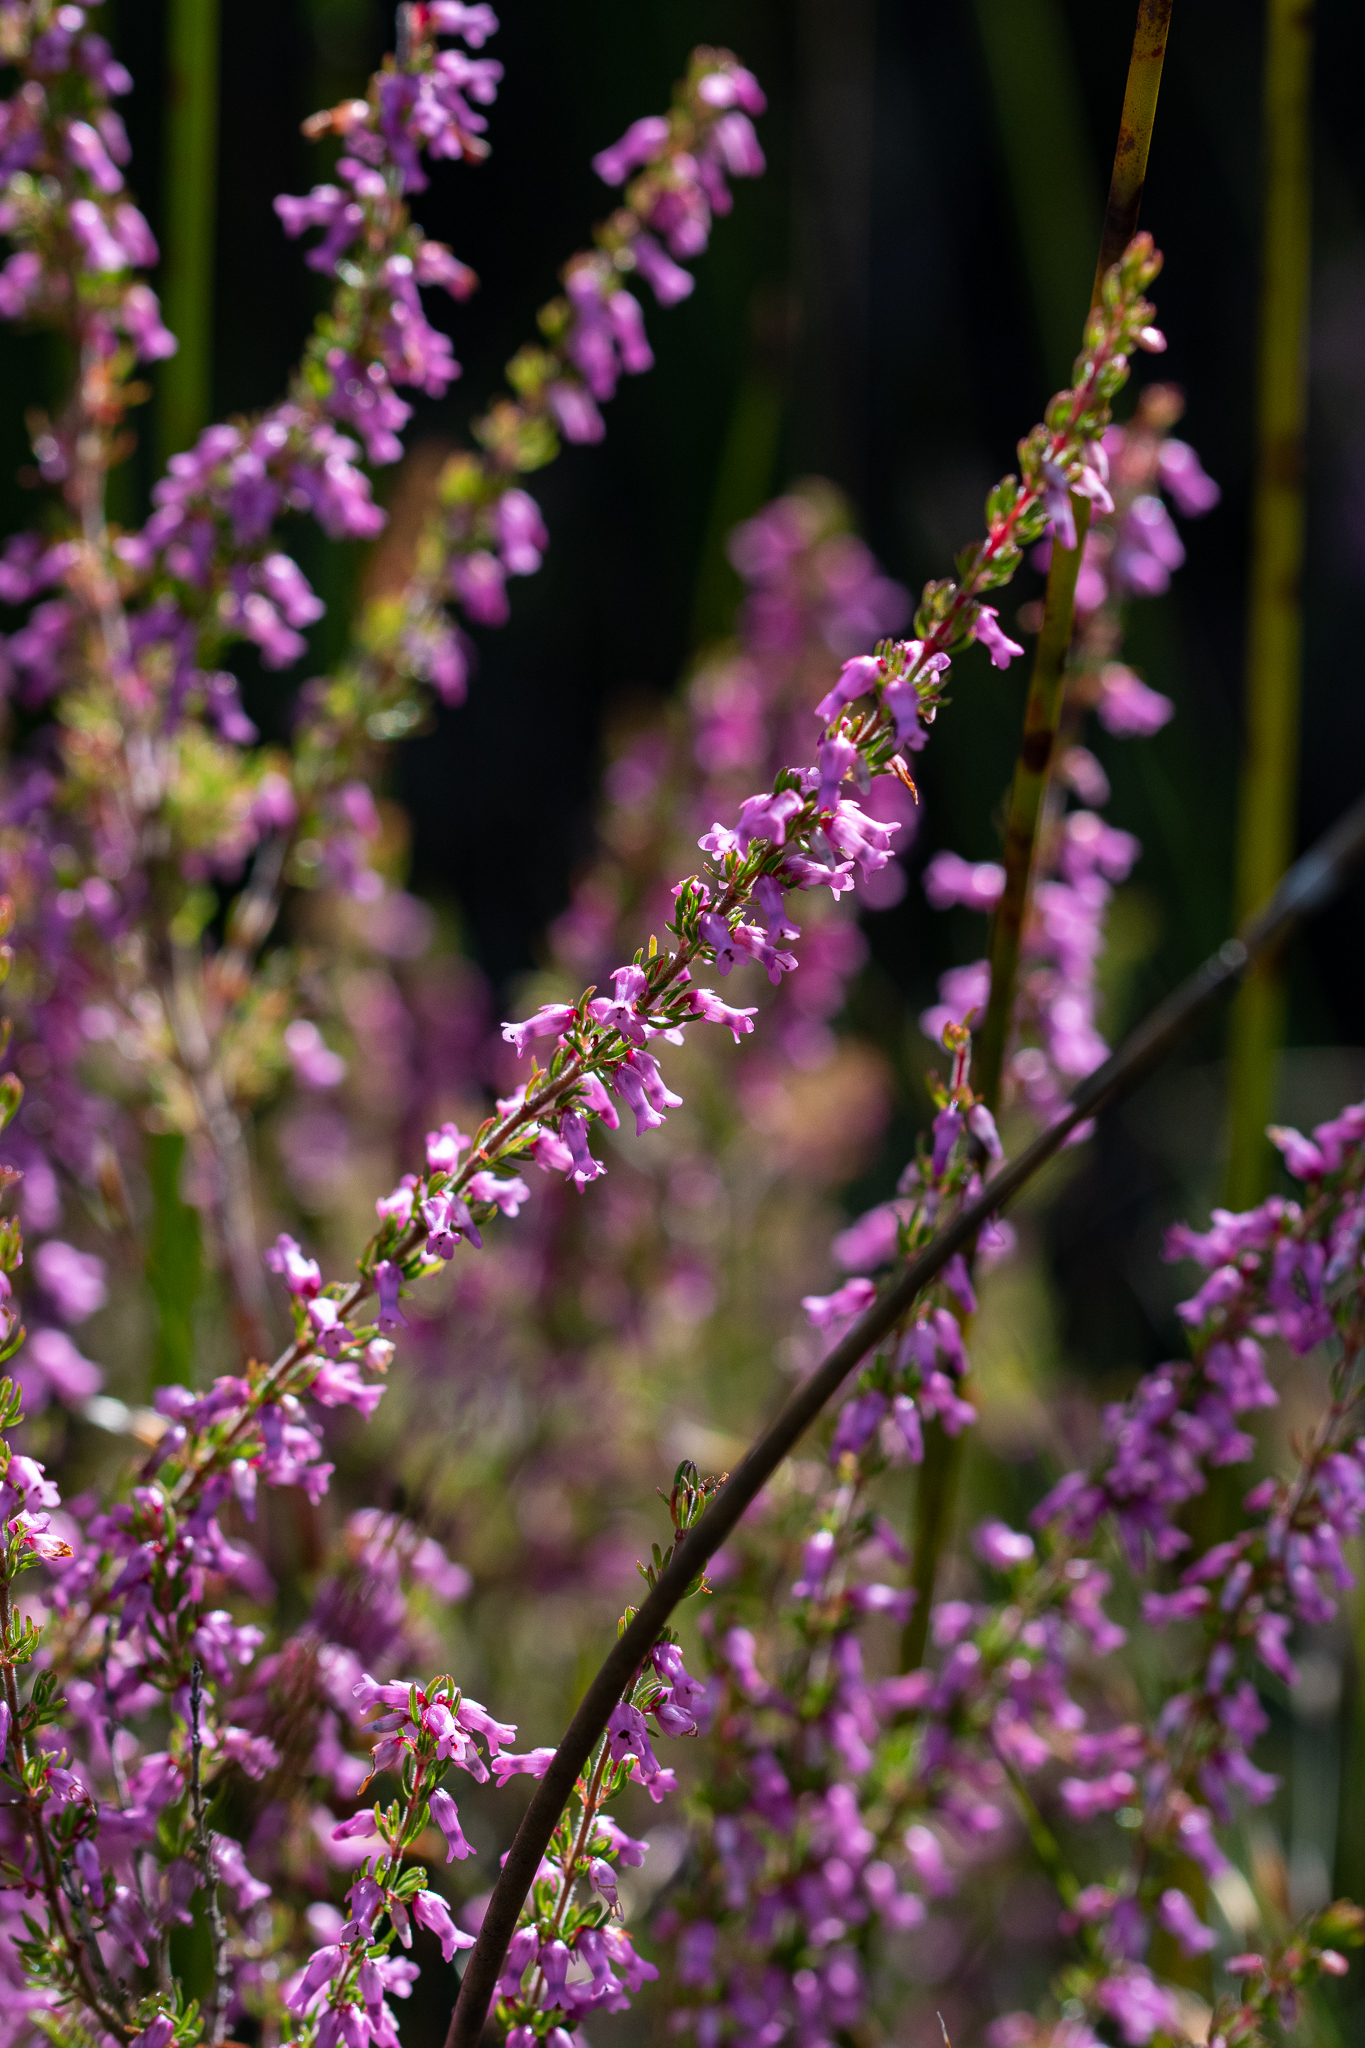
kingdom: Plantae
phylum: Tracheophyta
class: Magnoliopsida
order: Ericales
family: Ericaceae
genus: Erica
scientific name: Erica intervallaris
